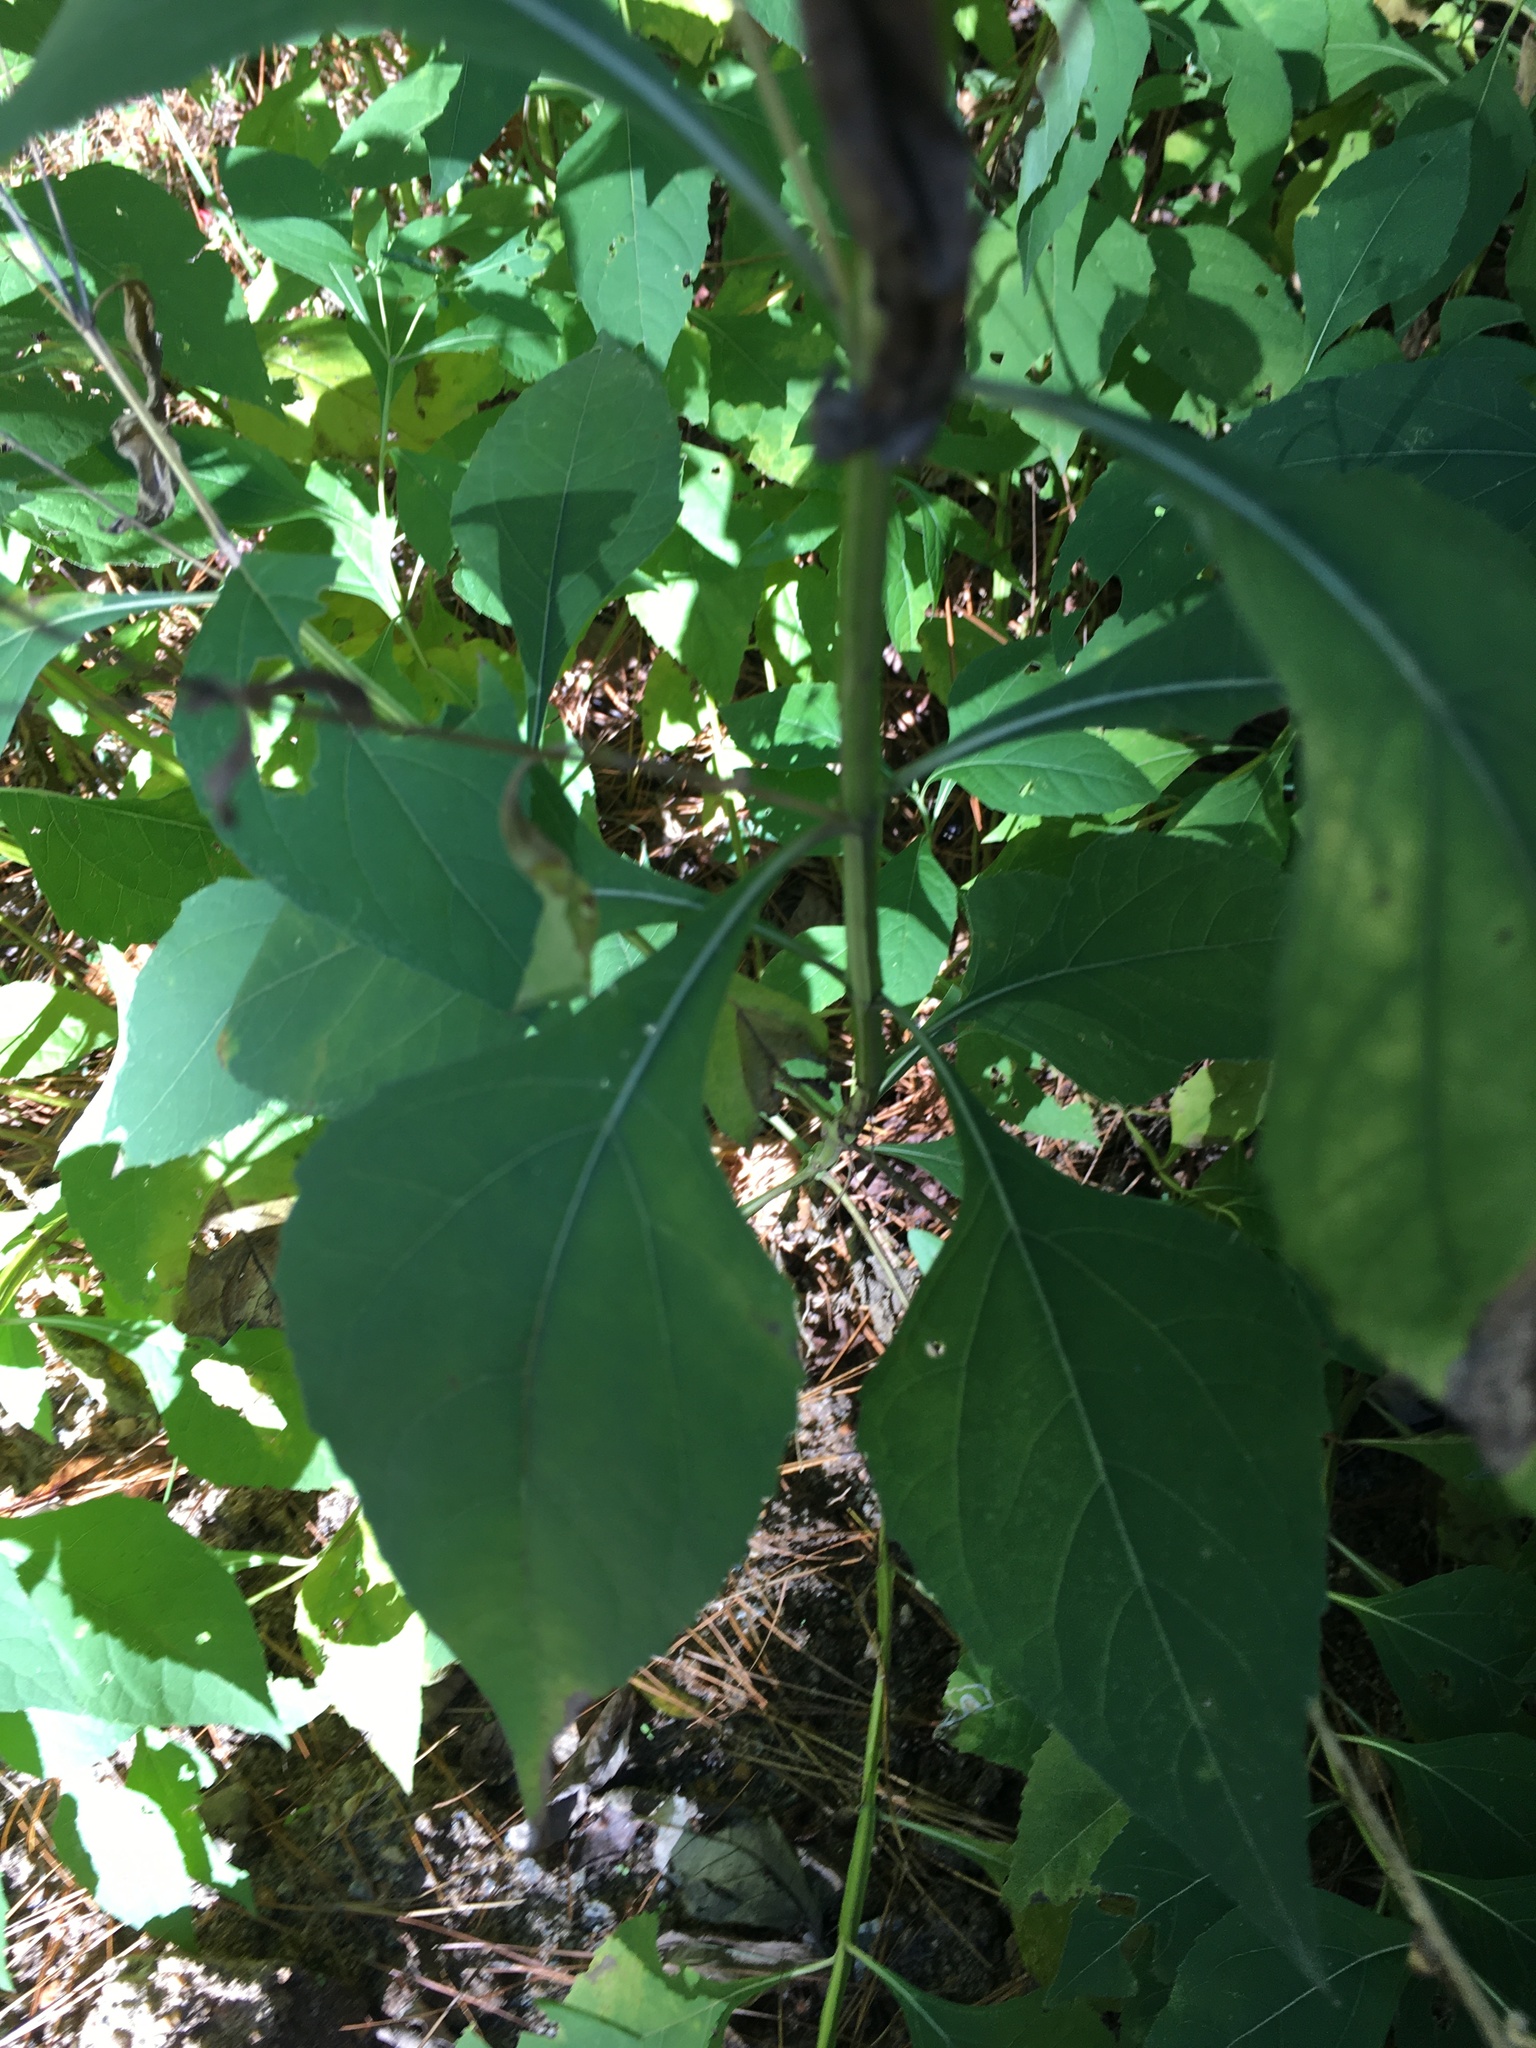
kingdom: Plantae
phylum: Tracheophyta
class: Magnoliopsida
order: Asterales
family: Asteraceae
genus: Verbesina
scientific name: Verbesina occidentalis
